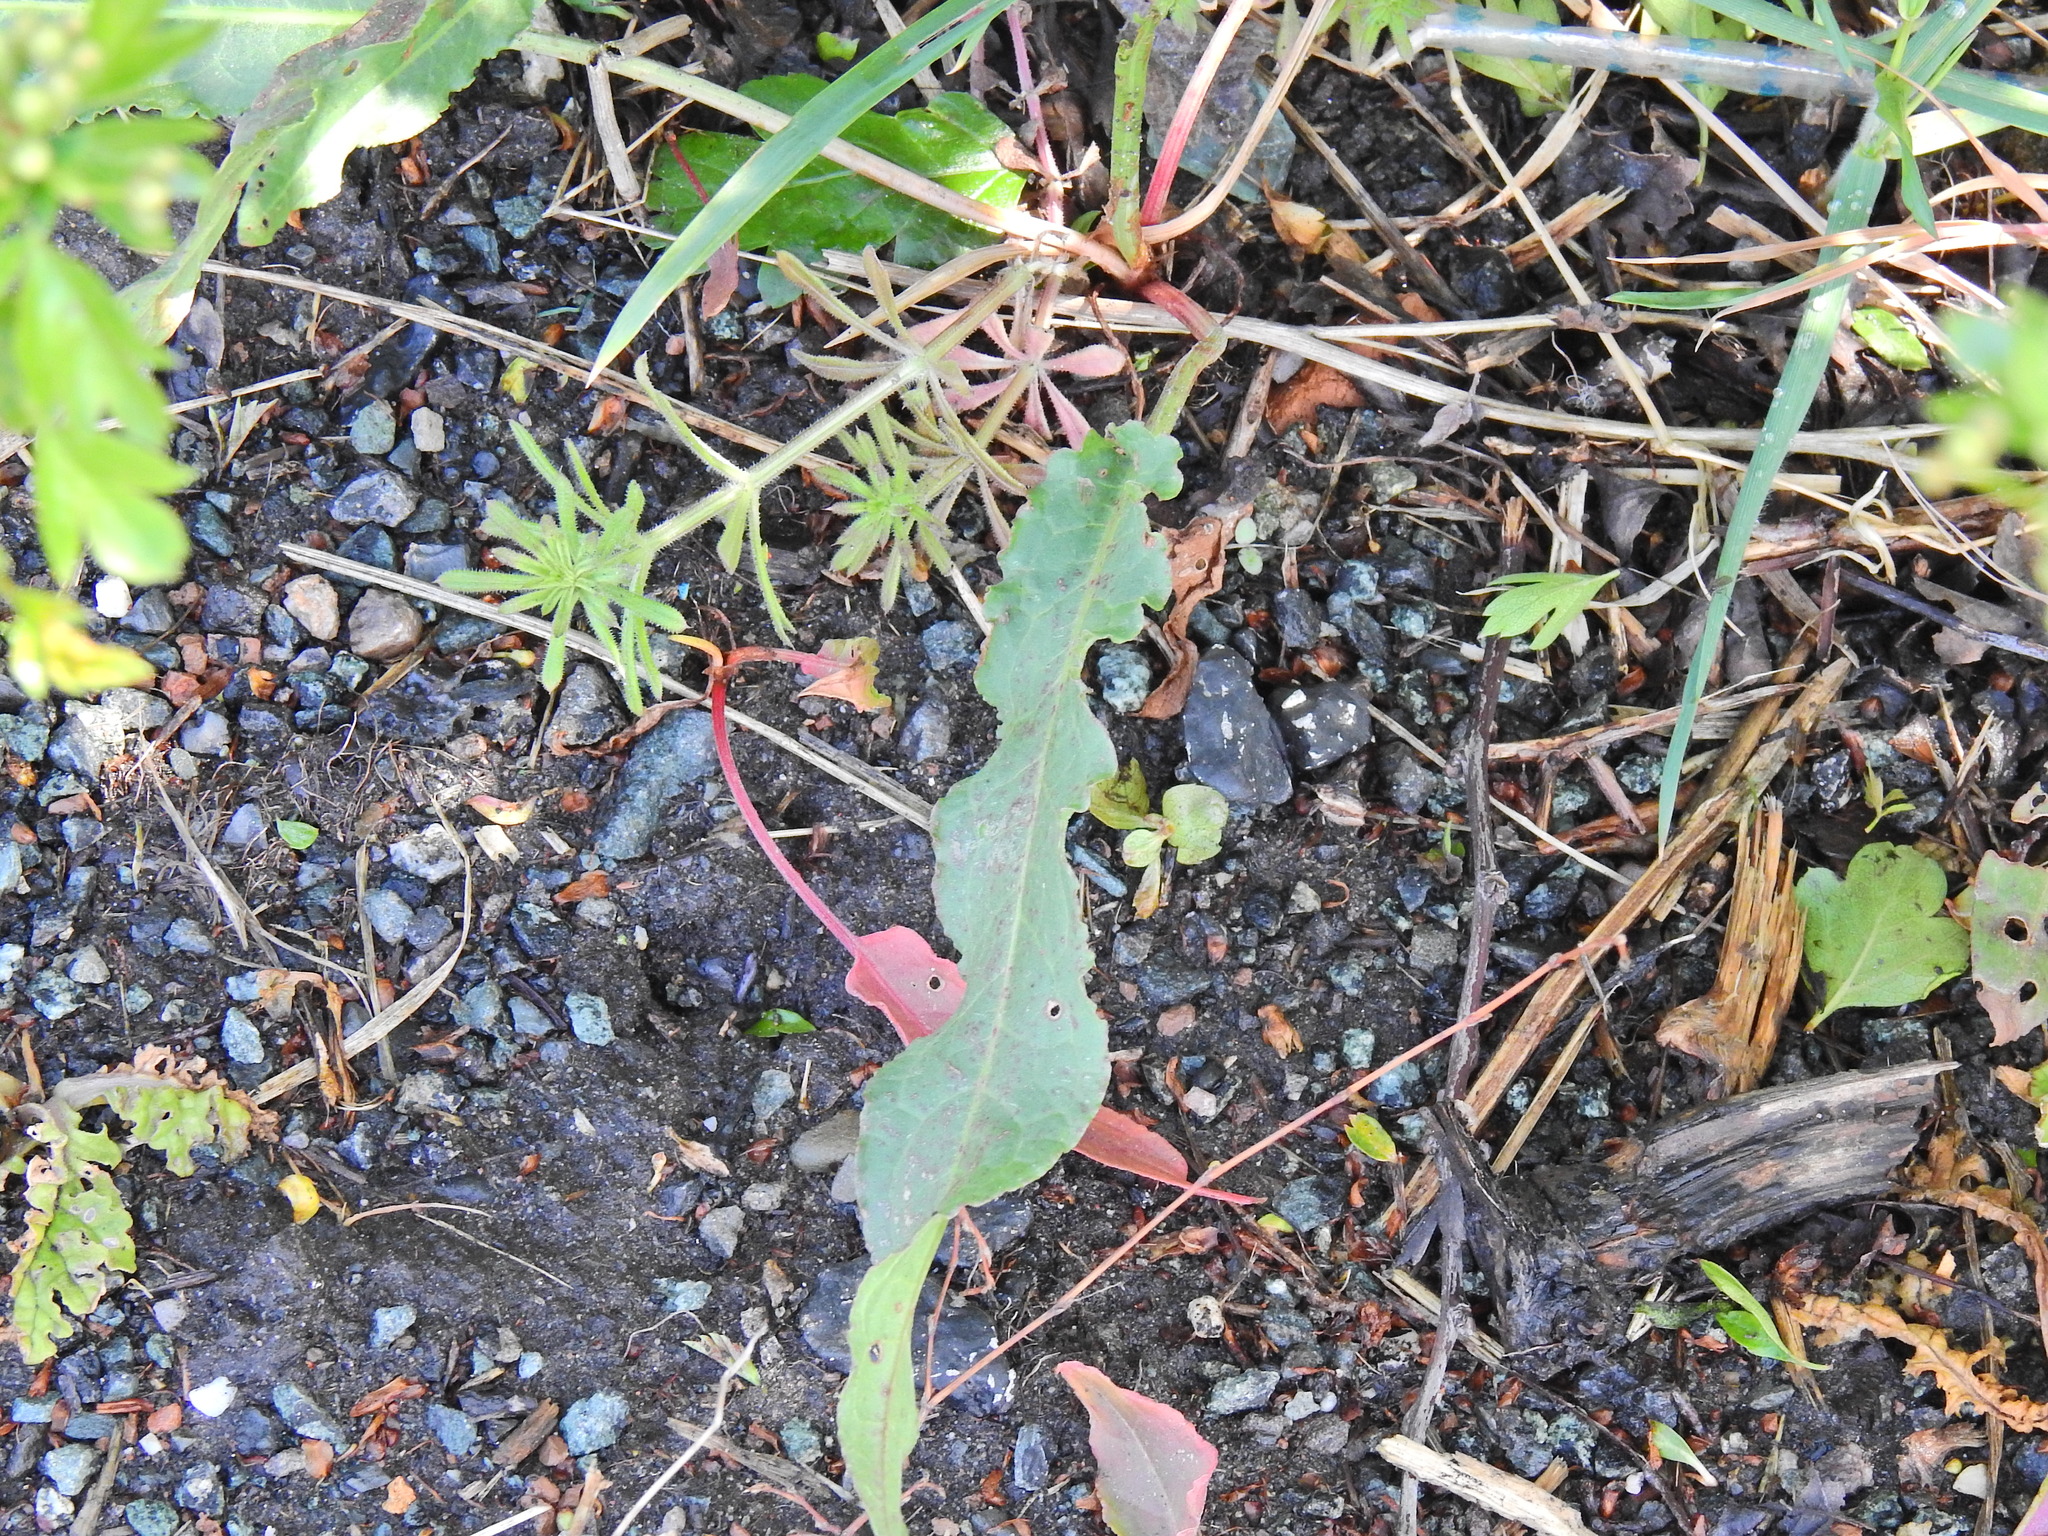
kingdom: Plantae
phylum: Tracheophyta
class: Magnoliopsida
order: Caryophyllales
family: Polygonaceae
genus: Rumex
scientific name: Rumex crispus
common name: Curled dock
